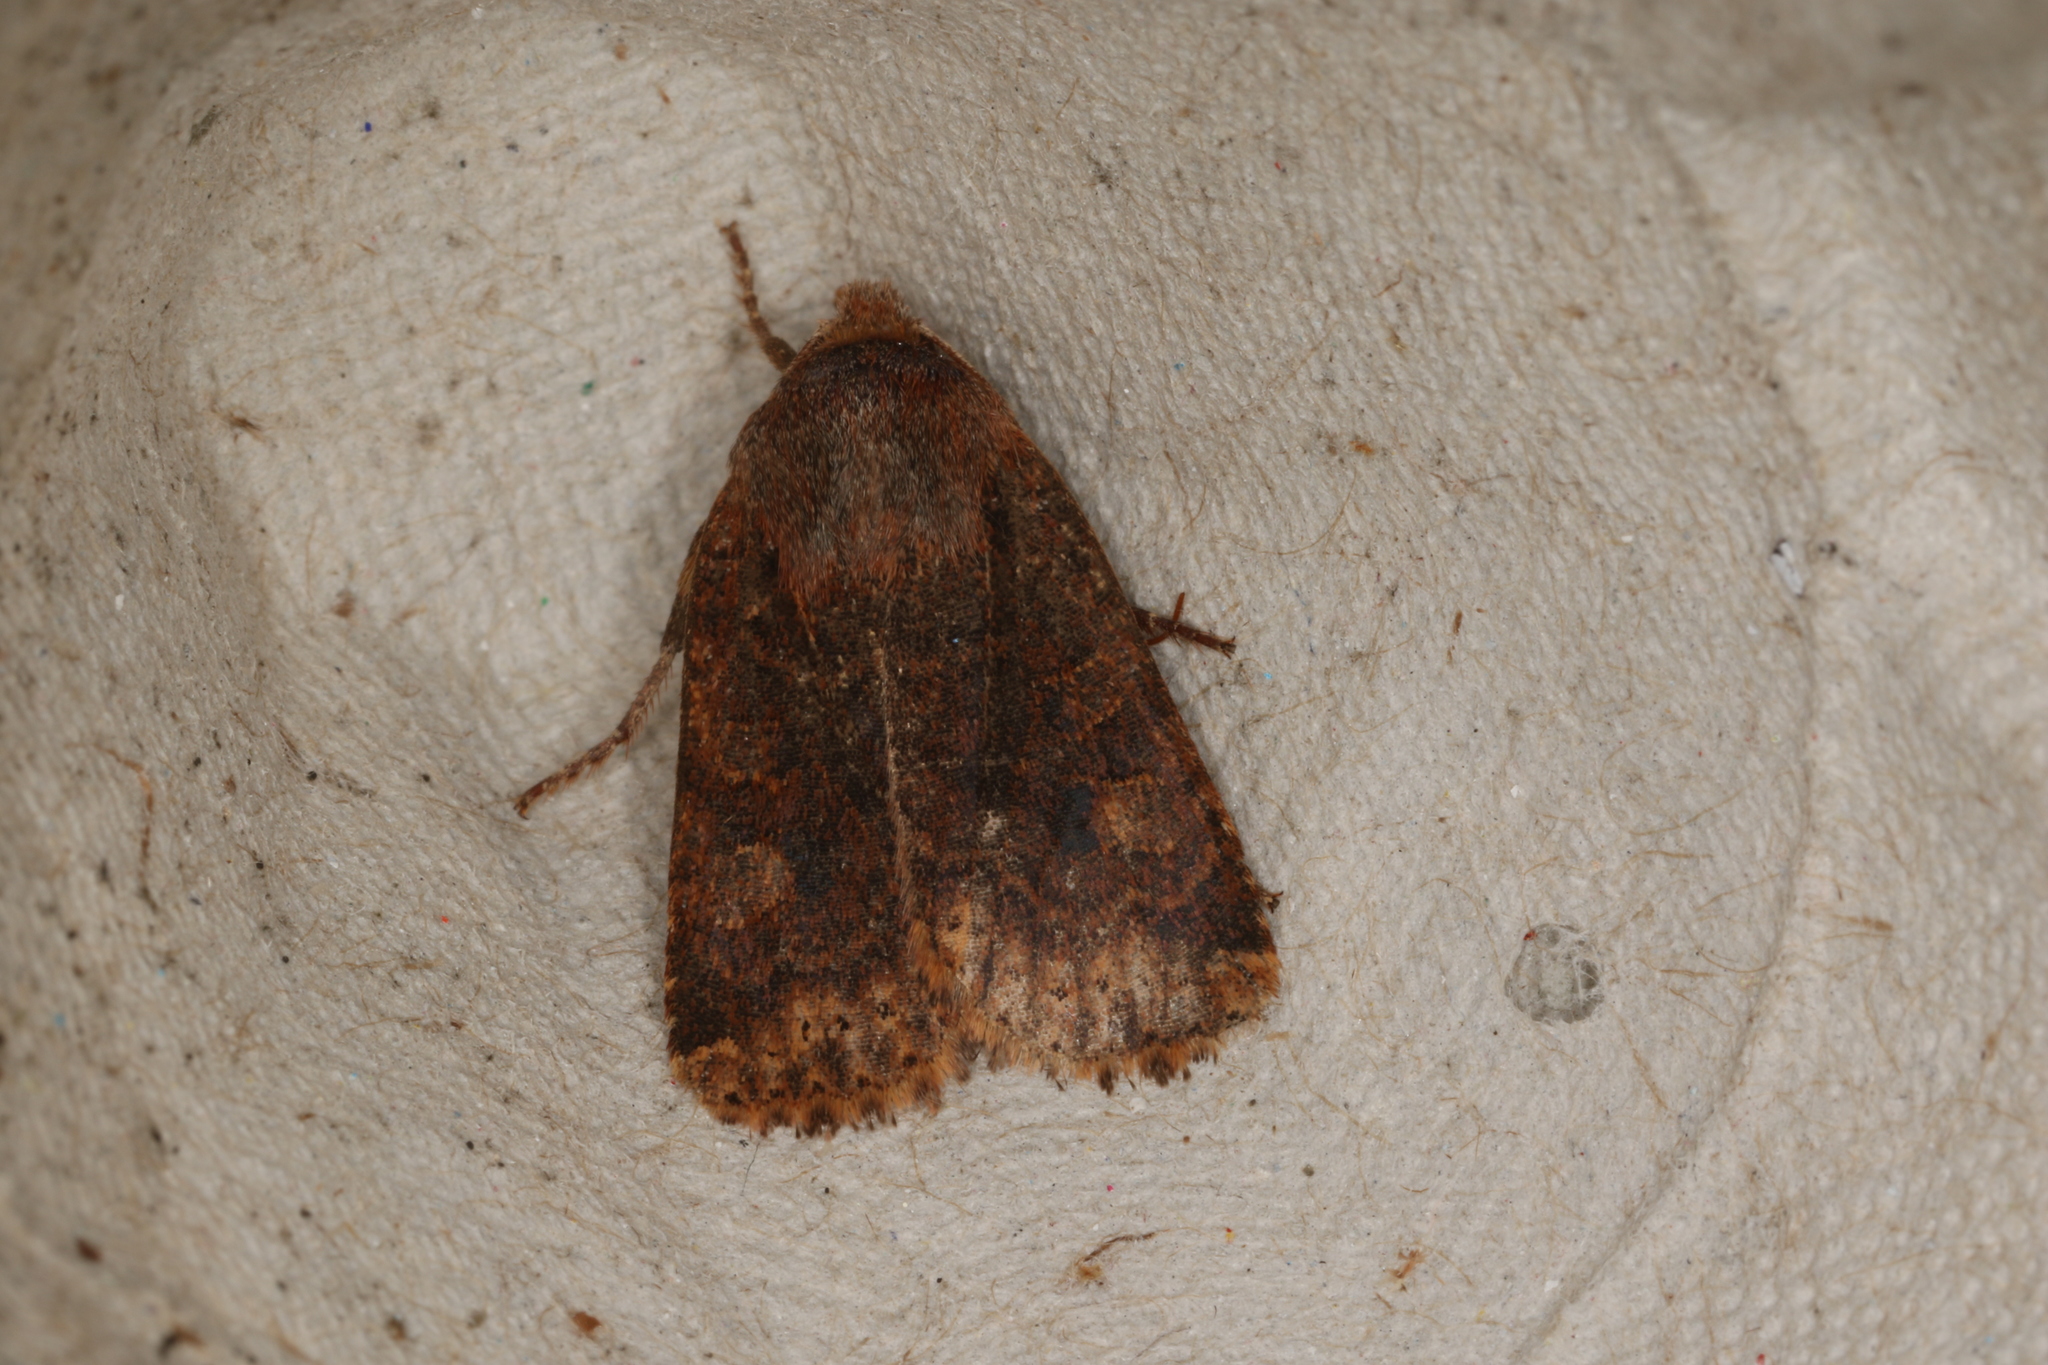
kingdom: Animalia
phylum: Arthropoda
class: Insecta
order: Lepidoptera
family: Noctuidae
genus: Conistra
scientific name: Conistra vaccinii
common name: Chestnut
